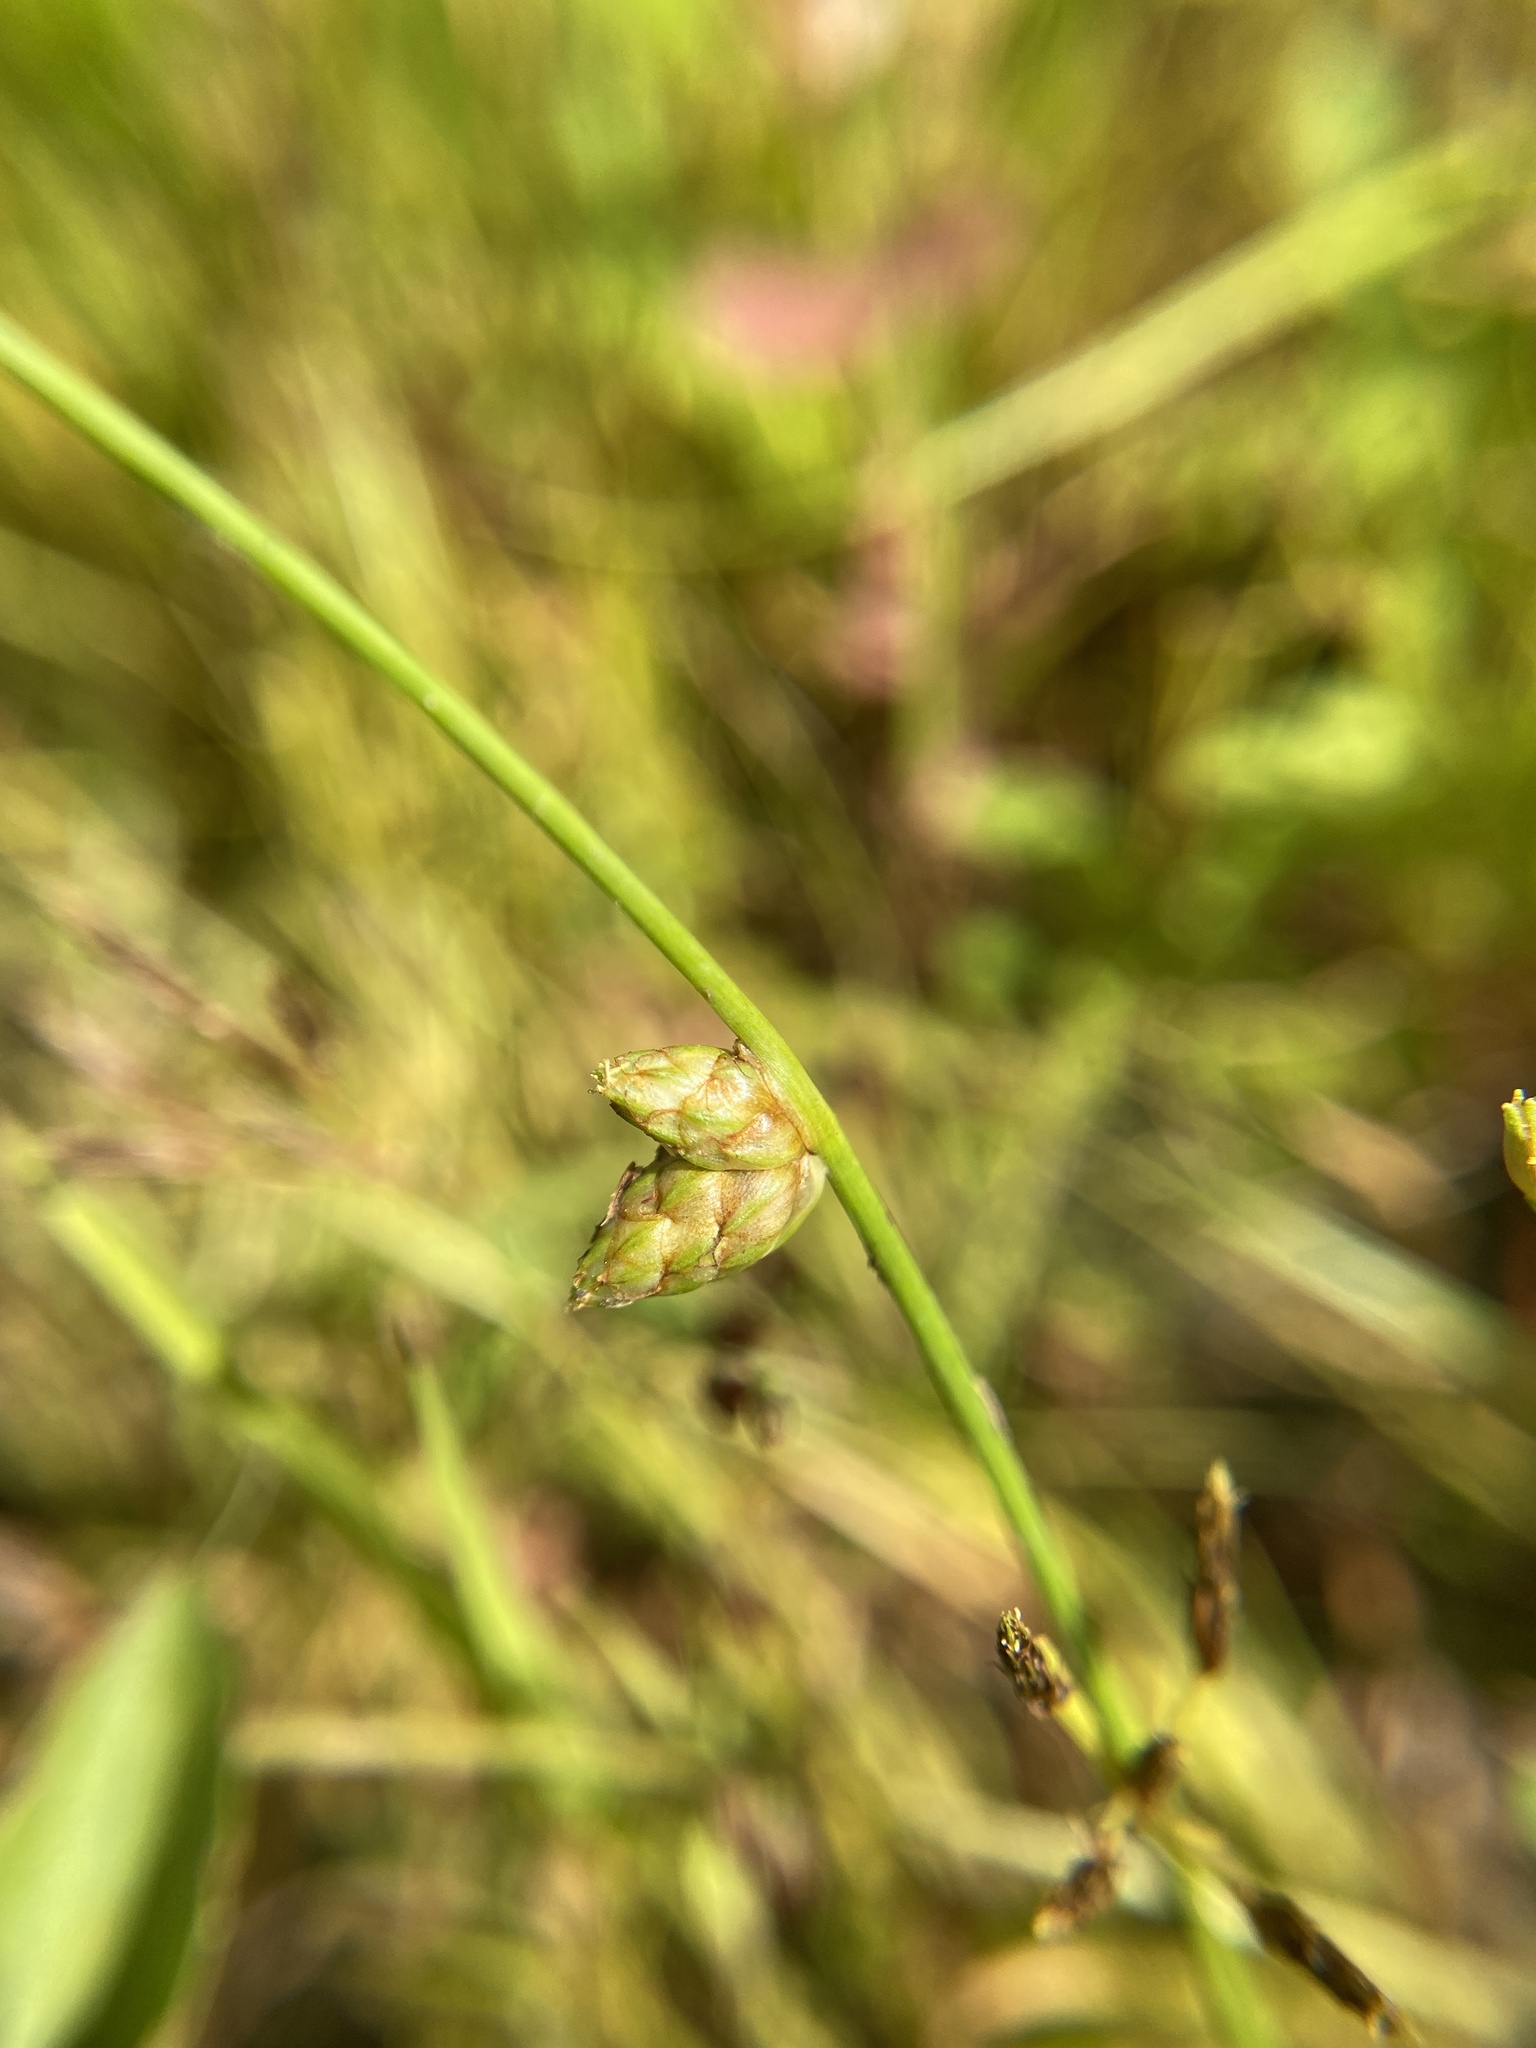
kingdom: Plantae
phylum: Tracheophyta
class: Liliopsida
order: Poales
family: Cyperaceae
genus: Schoenoplectiella
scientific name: Schoenoplectiella smithii
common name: Smith's bulrush
